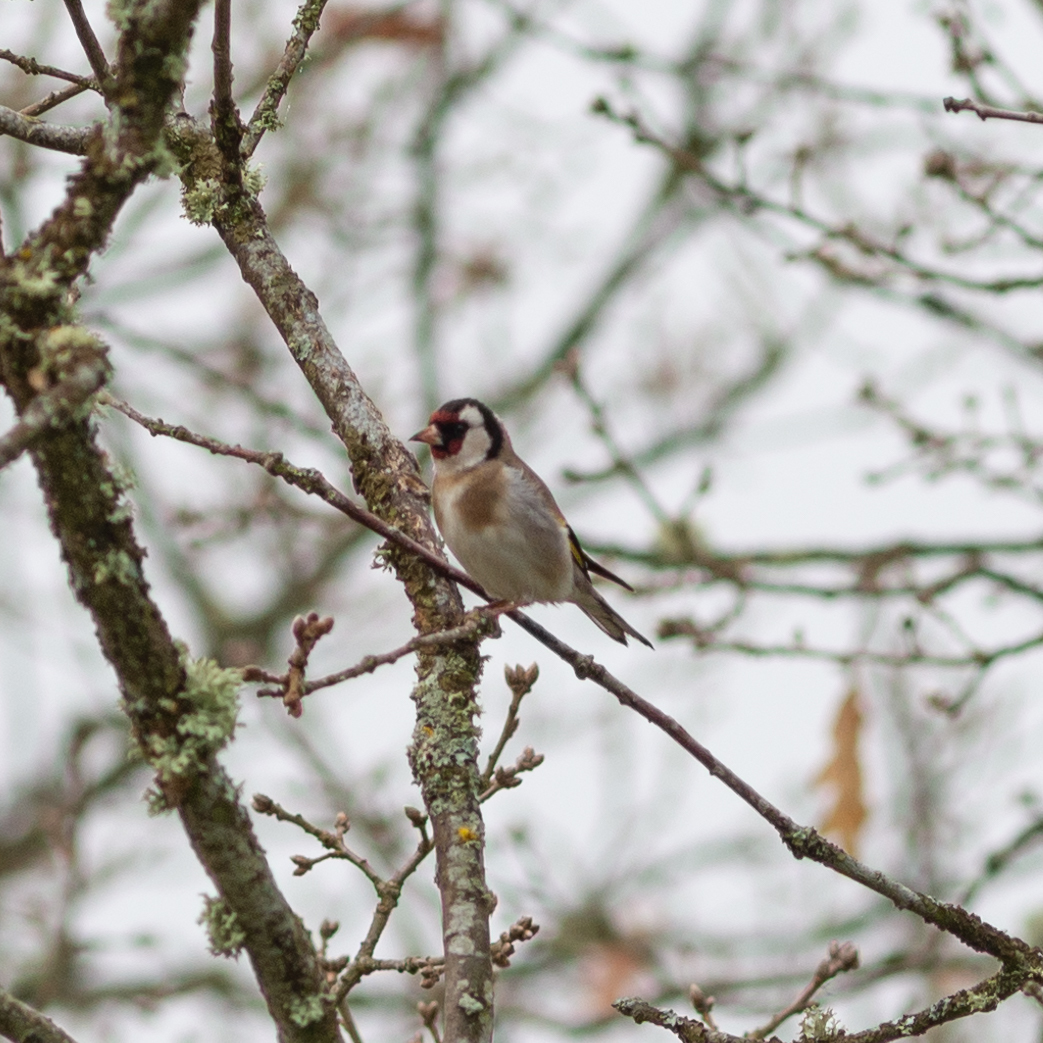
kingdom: Animalia
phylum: Chordata
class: Aves
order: Passeriformes
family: Fringillidae
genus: Carduelis
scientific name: Carduelis carduelis
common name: European goldfinch
